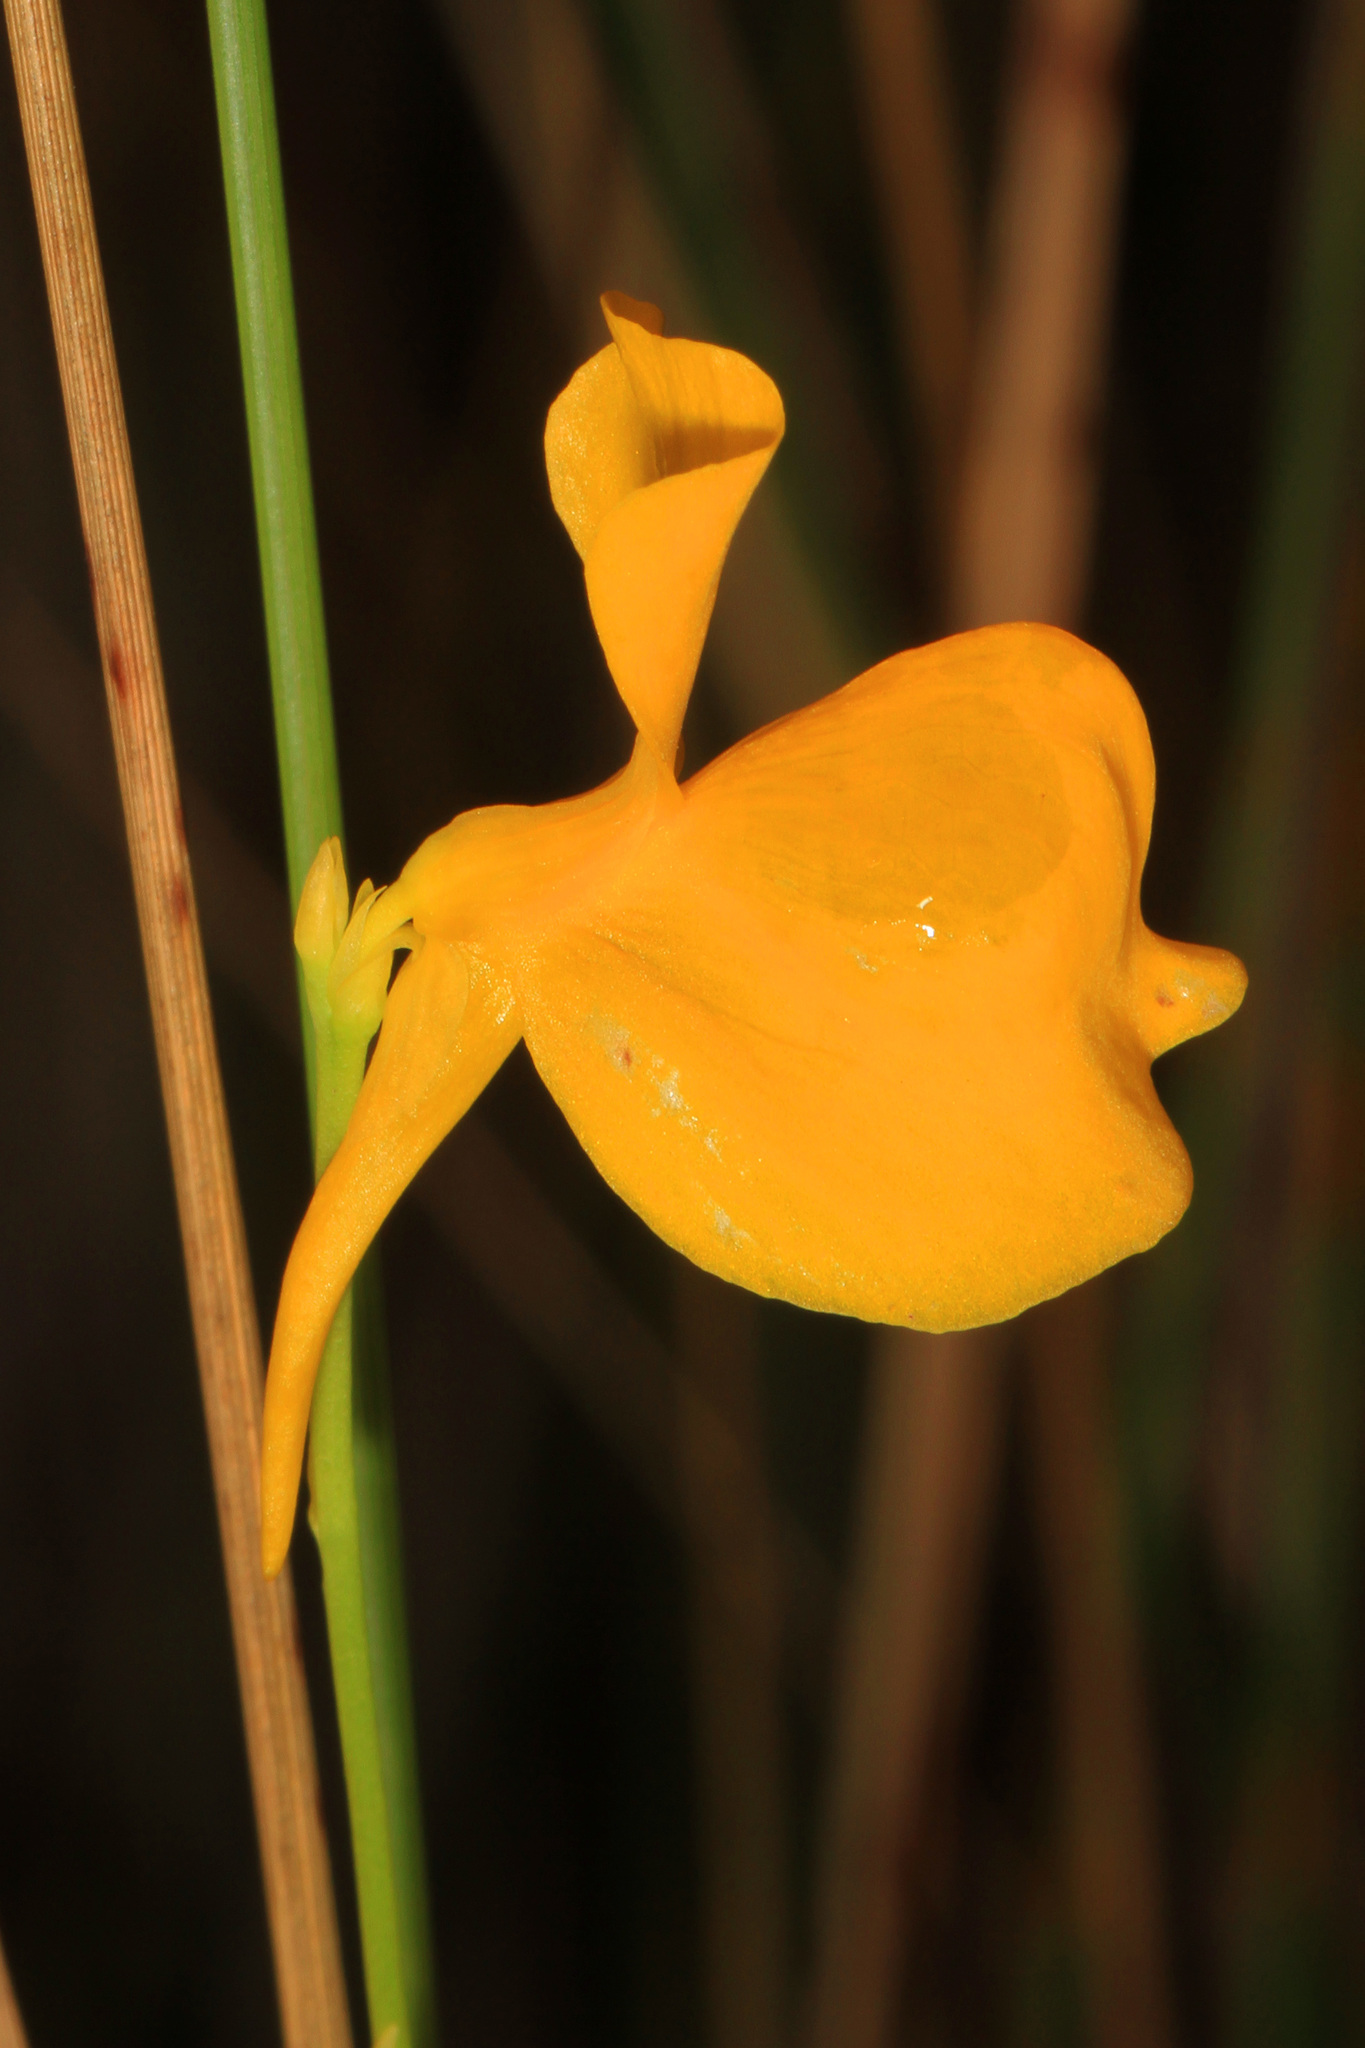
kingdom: Plantae
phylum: Tracheophyta
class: Magnoliopsida
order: Lamiales
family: Lentibulariaceae
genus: Utricularia
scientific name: Utricularia cornuta
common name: Horned bladderwort
